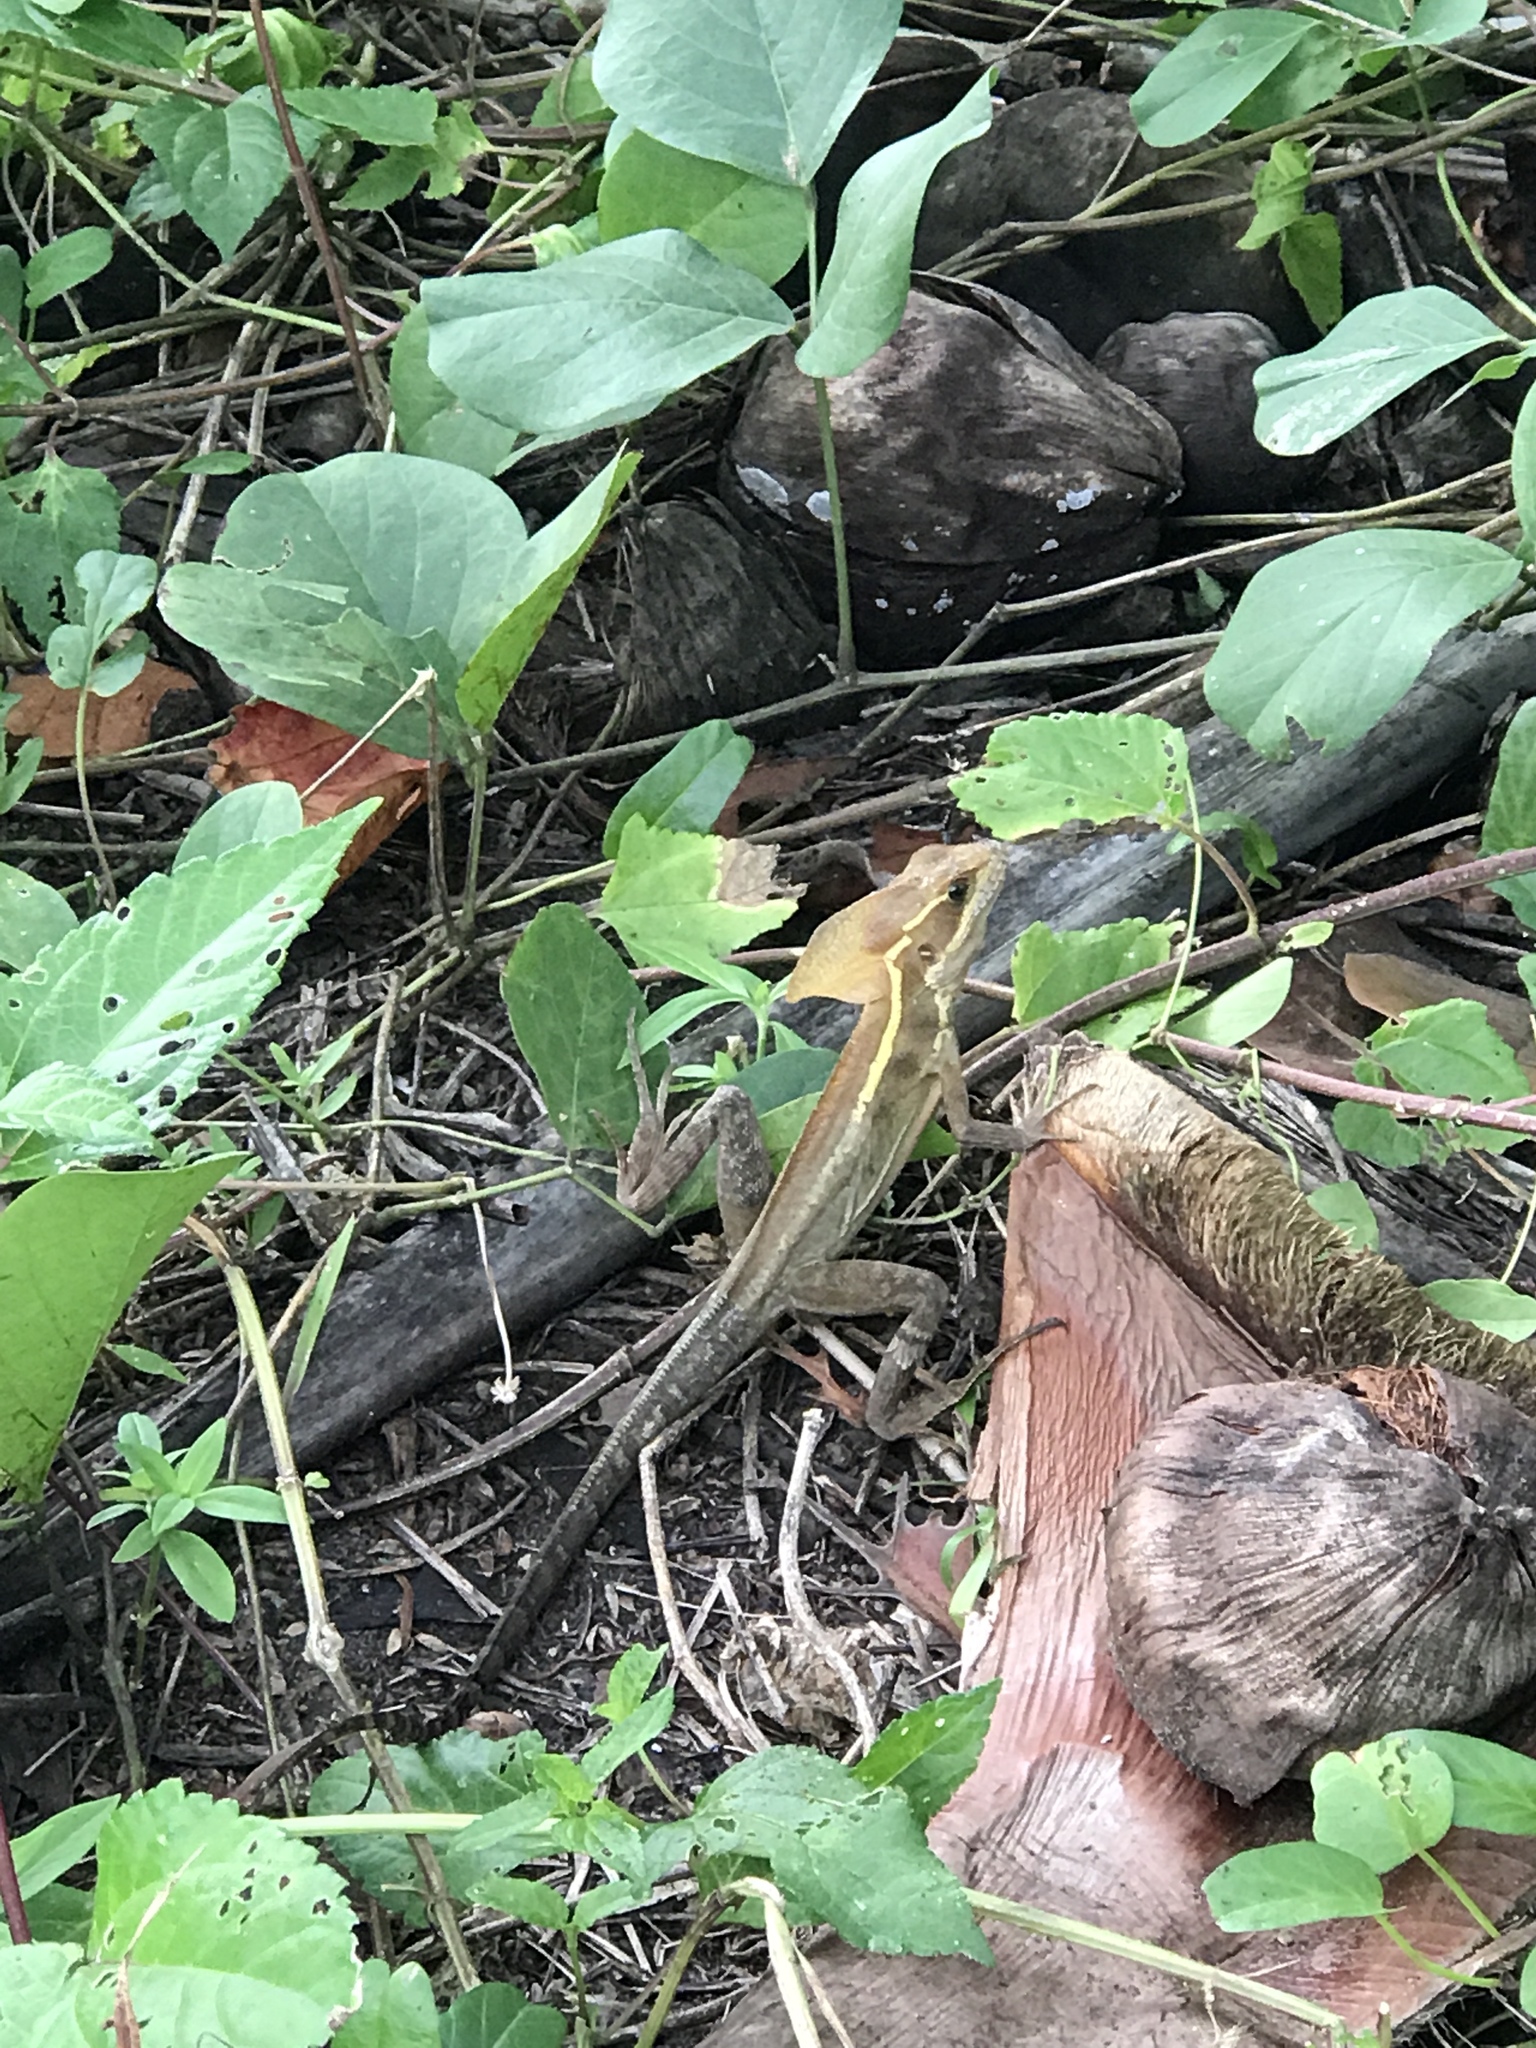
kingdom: Animalia
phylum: Chordata
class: Squamata
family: Corytophanidae
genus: Basiliscus
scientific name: Basiliscus vittatus
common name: Brown basilisk
